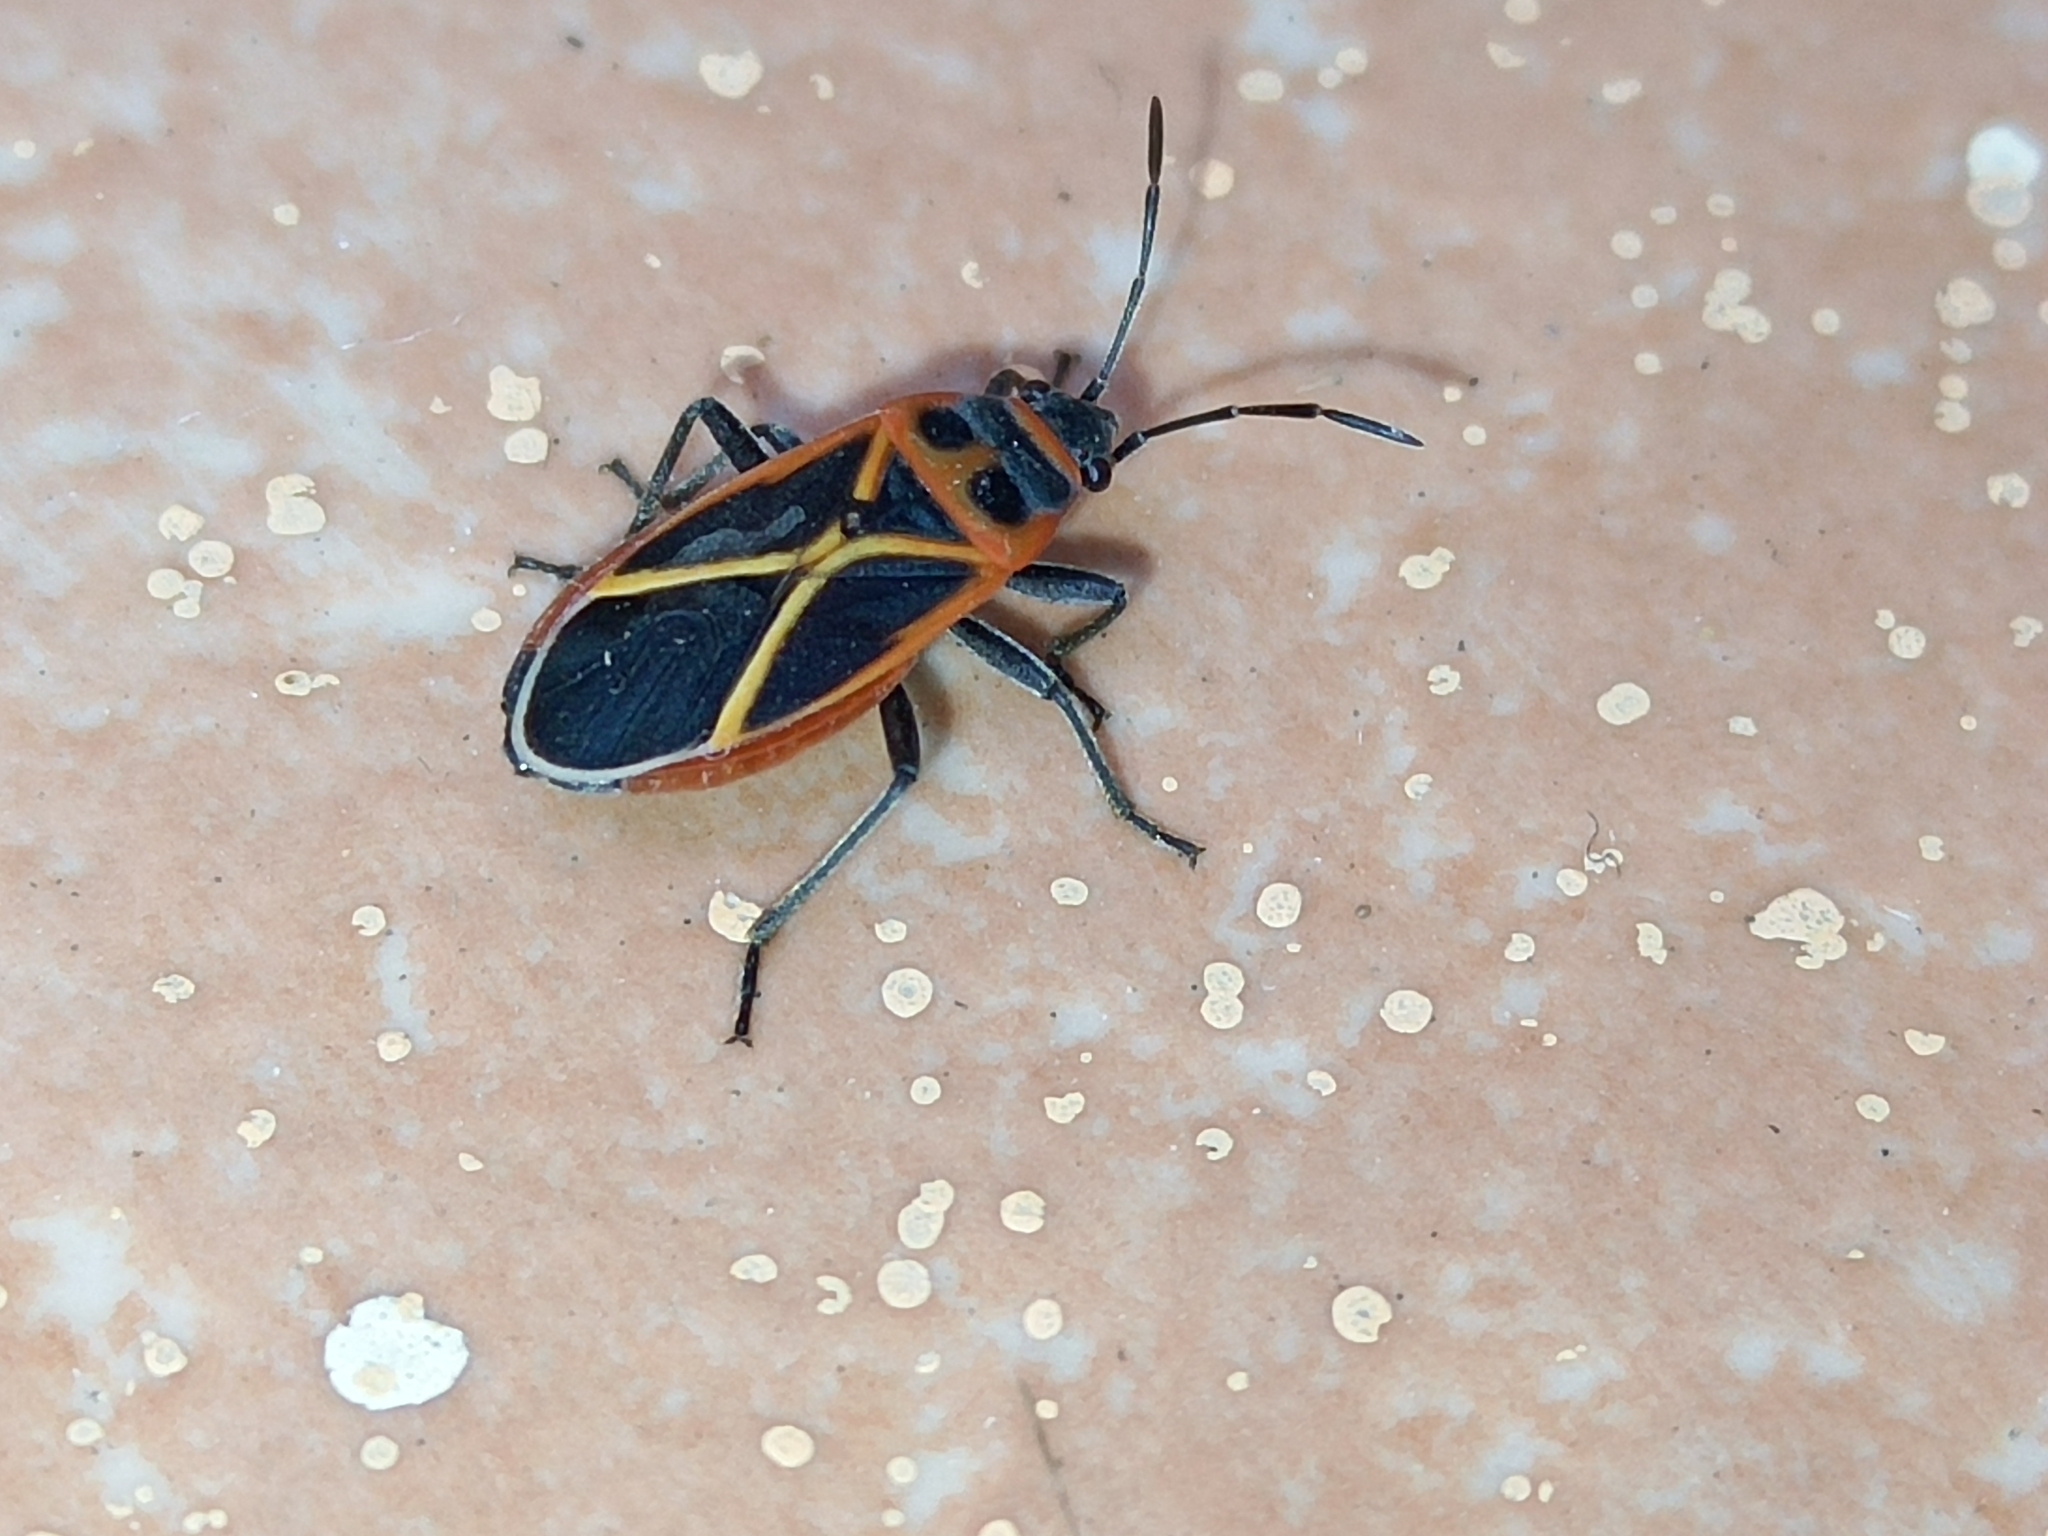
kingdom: Animalia
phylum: Arthropoda
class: Insecta
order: Hemiptera
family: Lygaeidae
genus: Ochrostomus
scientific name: Ochrostomus uhleri
